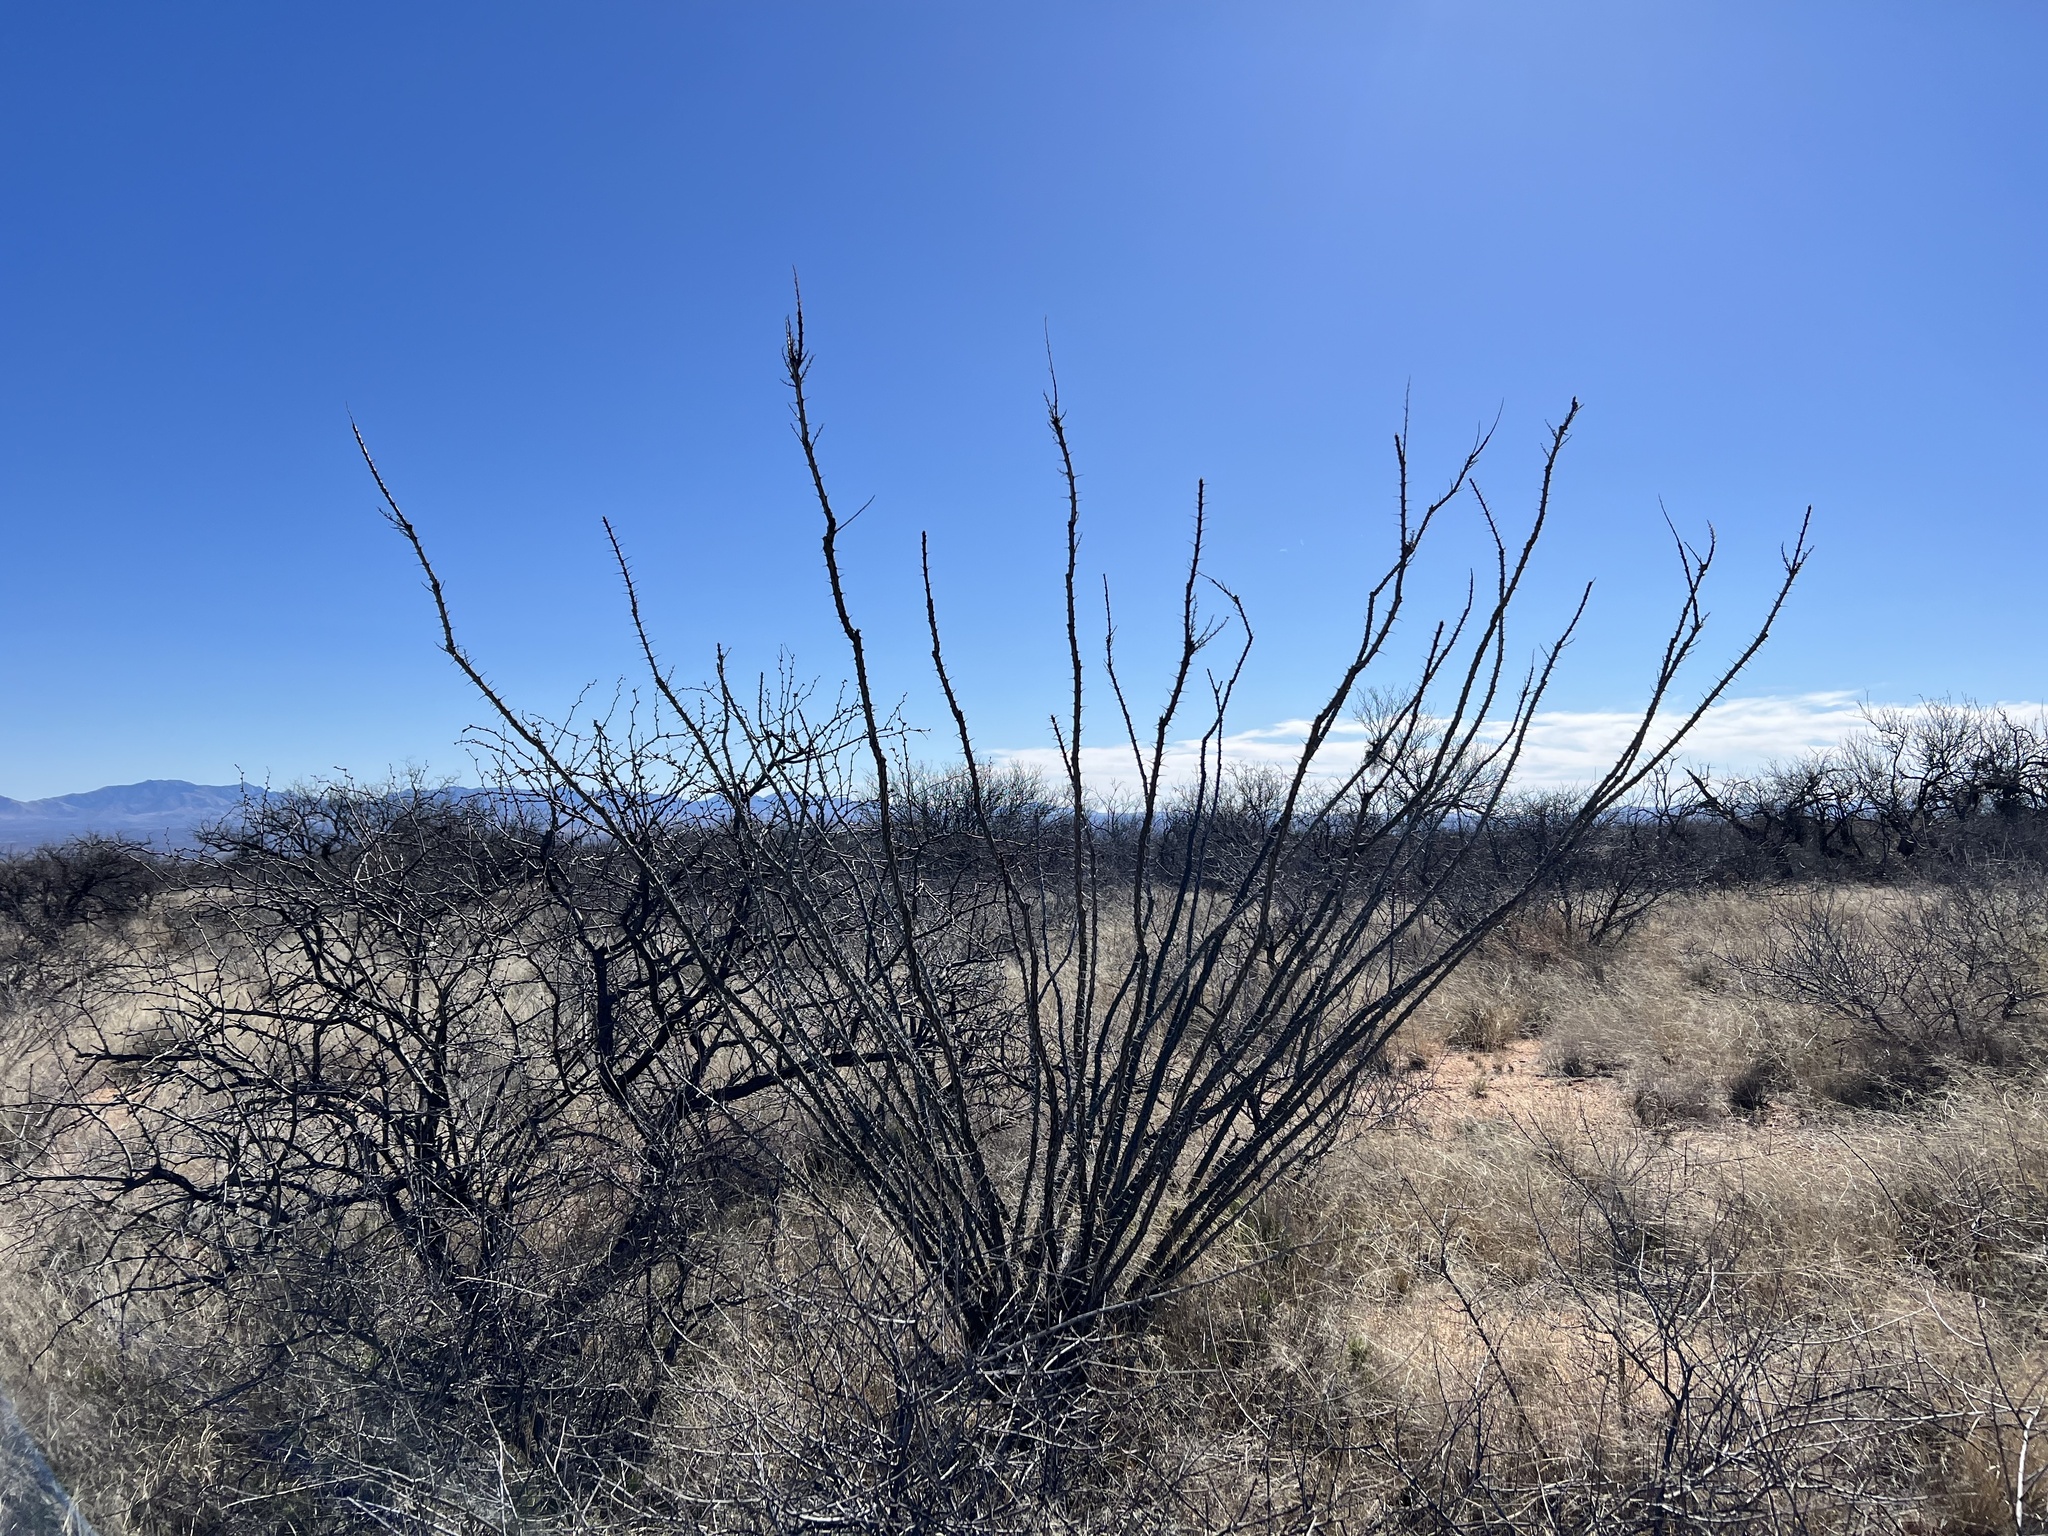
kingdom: Plantae
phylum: Tracheophyta
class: Magnoliopsida
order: Ericales
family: Fouquieriaceae
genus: Fouquieria
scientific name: Fouquieria splendens
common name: Vine-cactus
